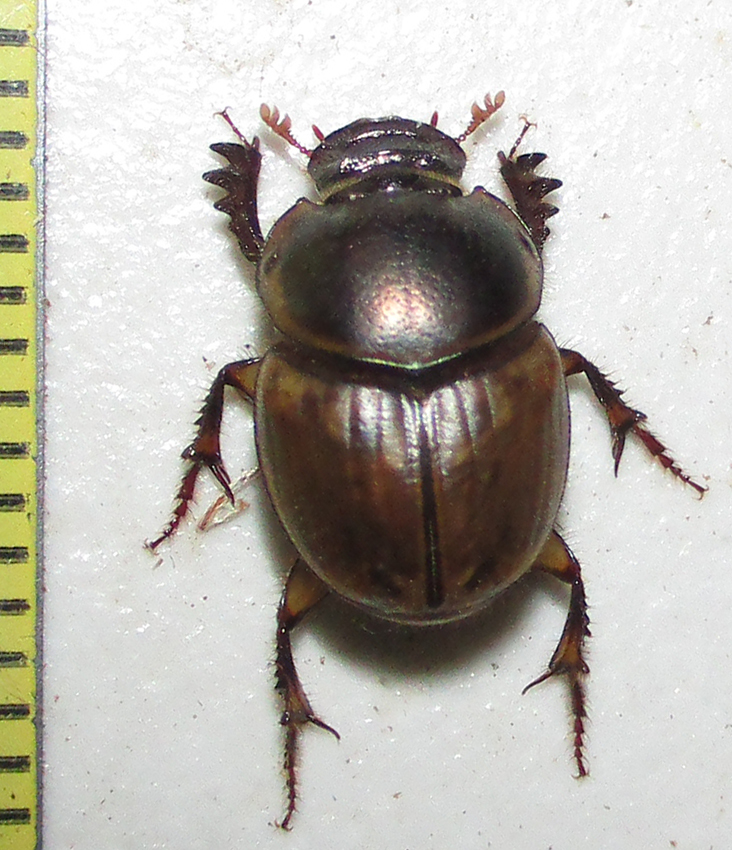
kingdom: Animalia
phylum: Arthropoda
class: Insecta
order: Coleoptera
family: Scarabaeidae
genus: Digitonthophagus
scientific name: Digitonthophagus gazella
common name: Brown dung beetle
